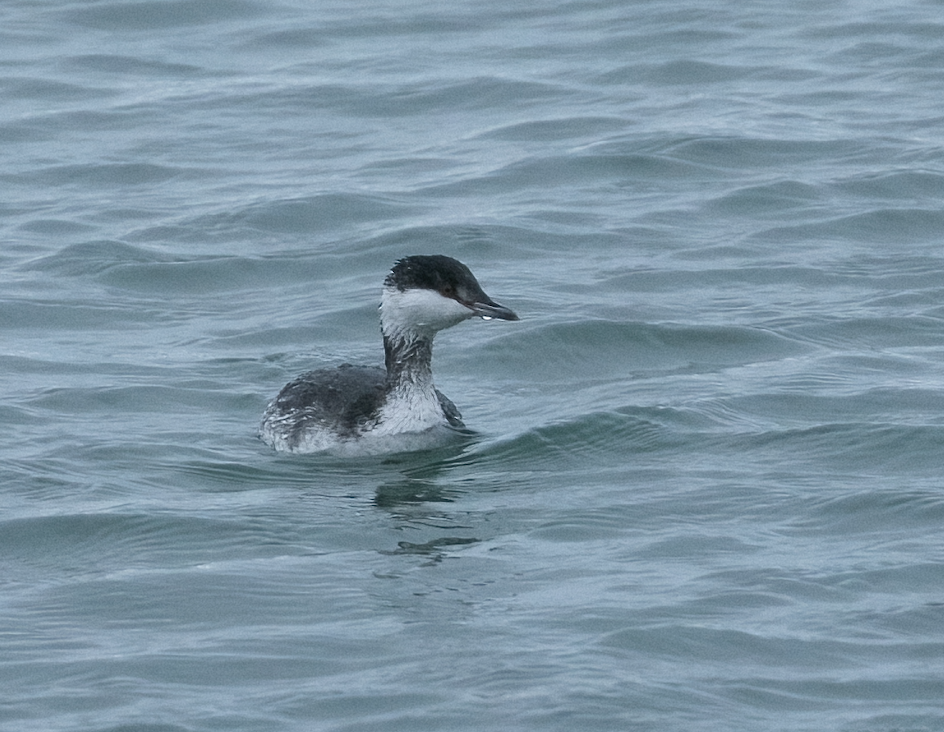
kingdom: Animalia
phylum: Chordata
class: Aves
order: Podicipediformes
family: Podicipedidae
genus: Podiceps
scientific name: Podiceps auritus
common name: Horned grebe
